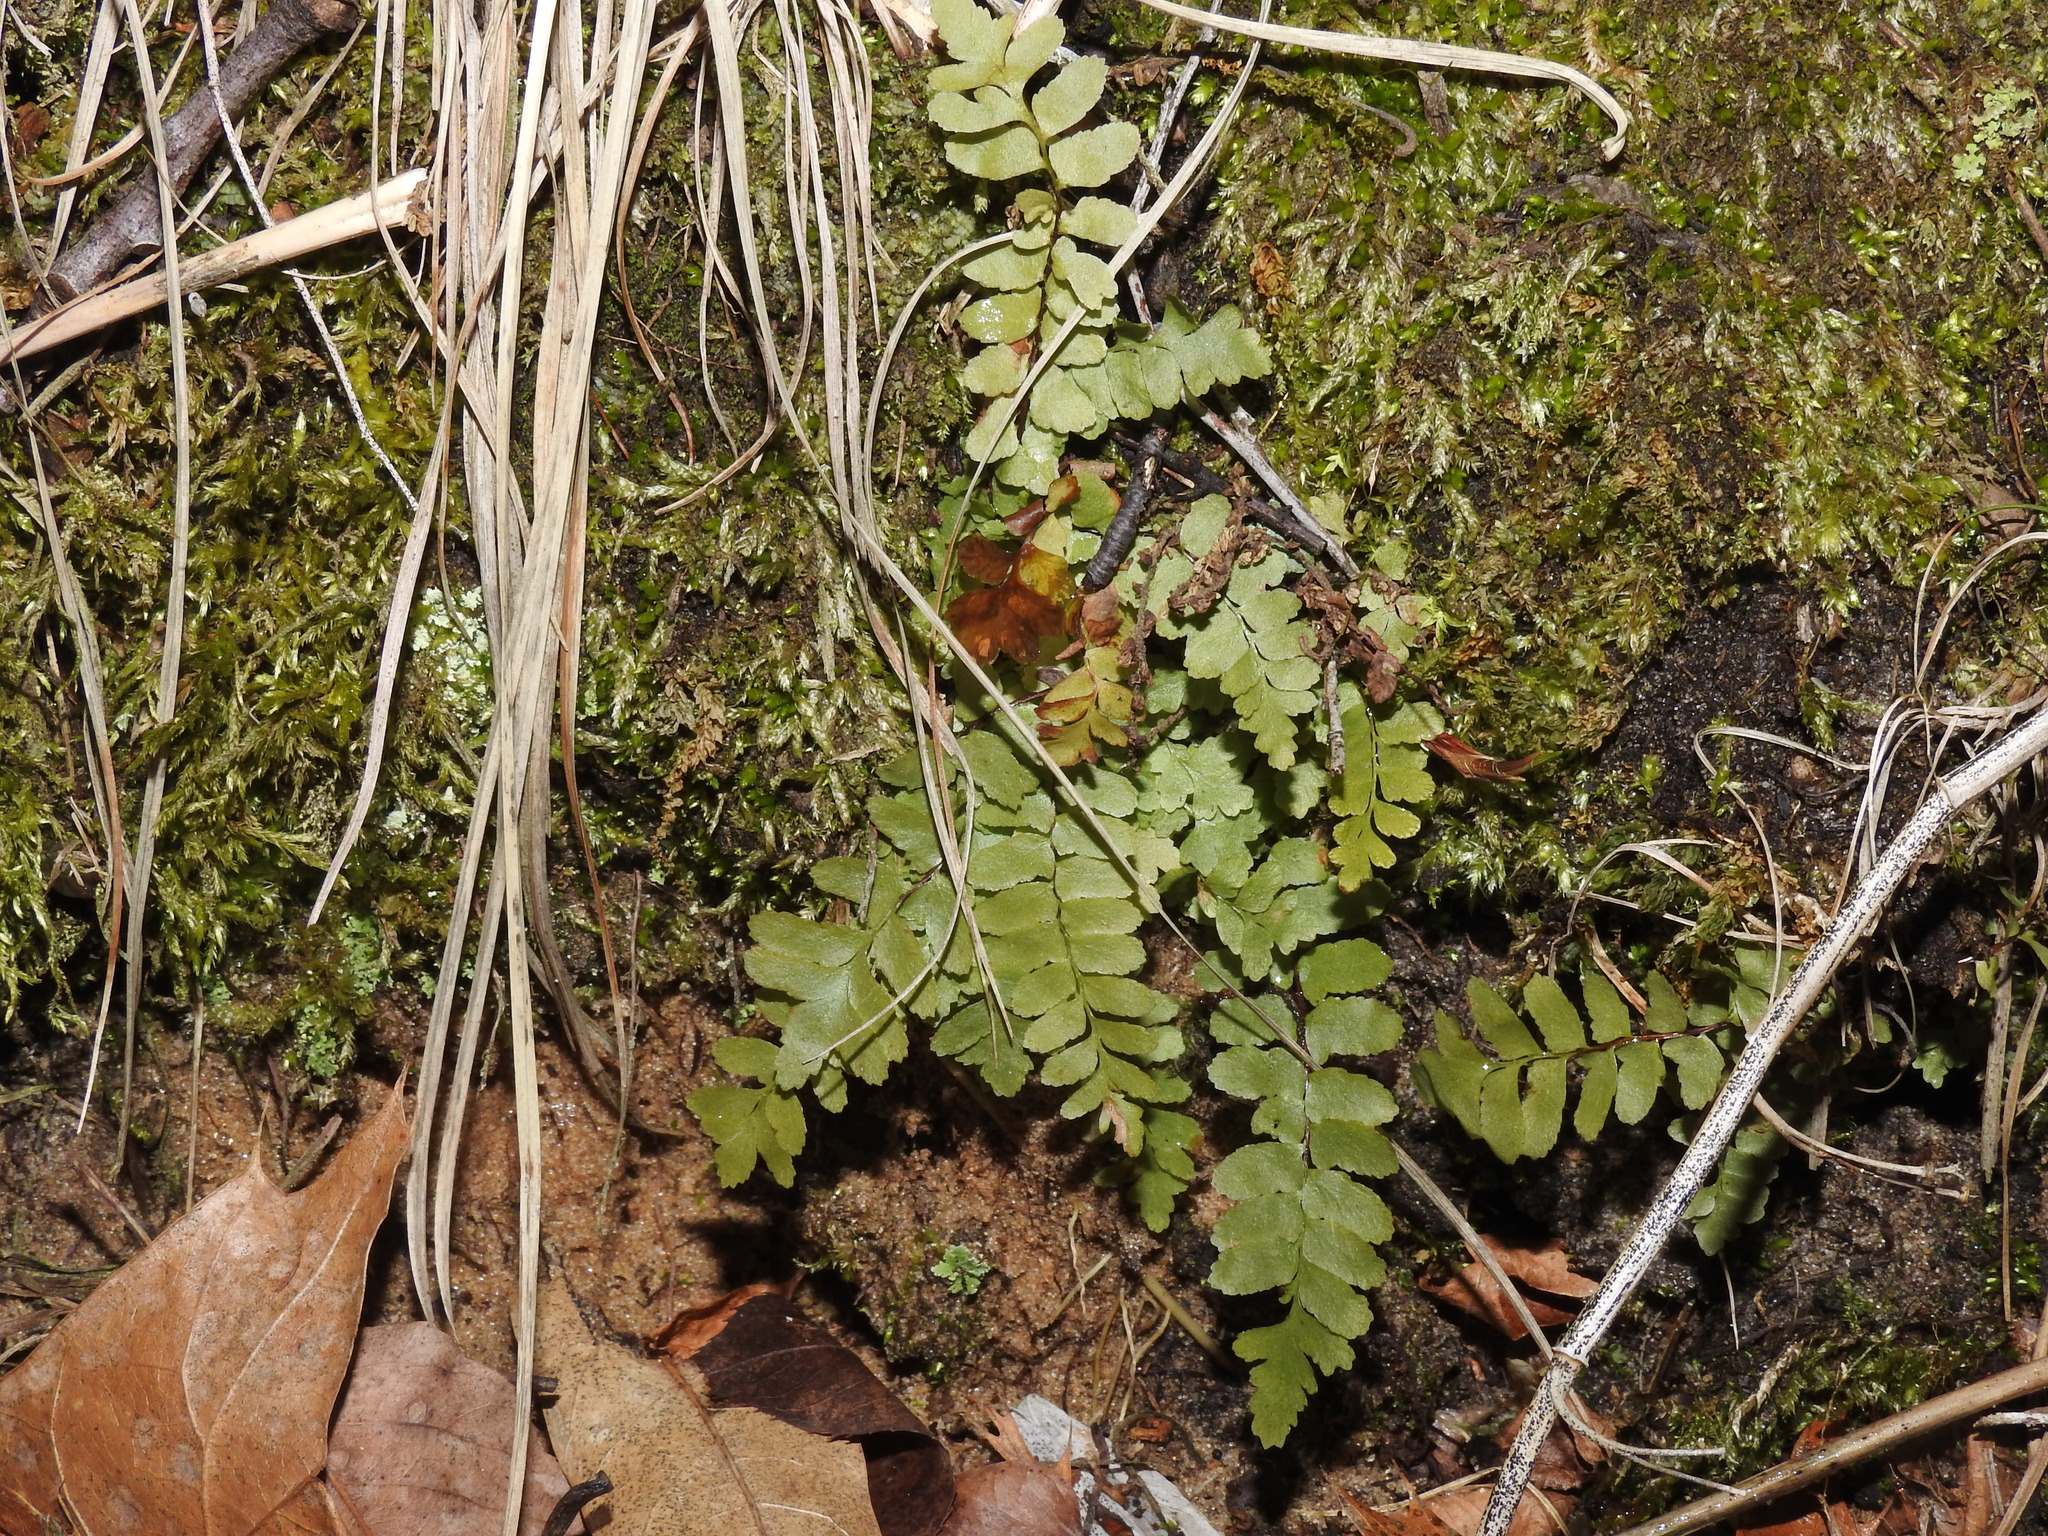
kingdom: Plantae
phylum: Tracheophyta
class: Polypodiopsida
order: Polypodiales
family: Aspleniaceae
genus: Asplenium
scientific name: Asplenium platyneuron
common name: Ebony spleenwort
